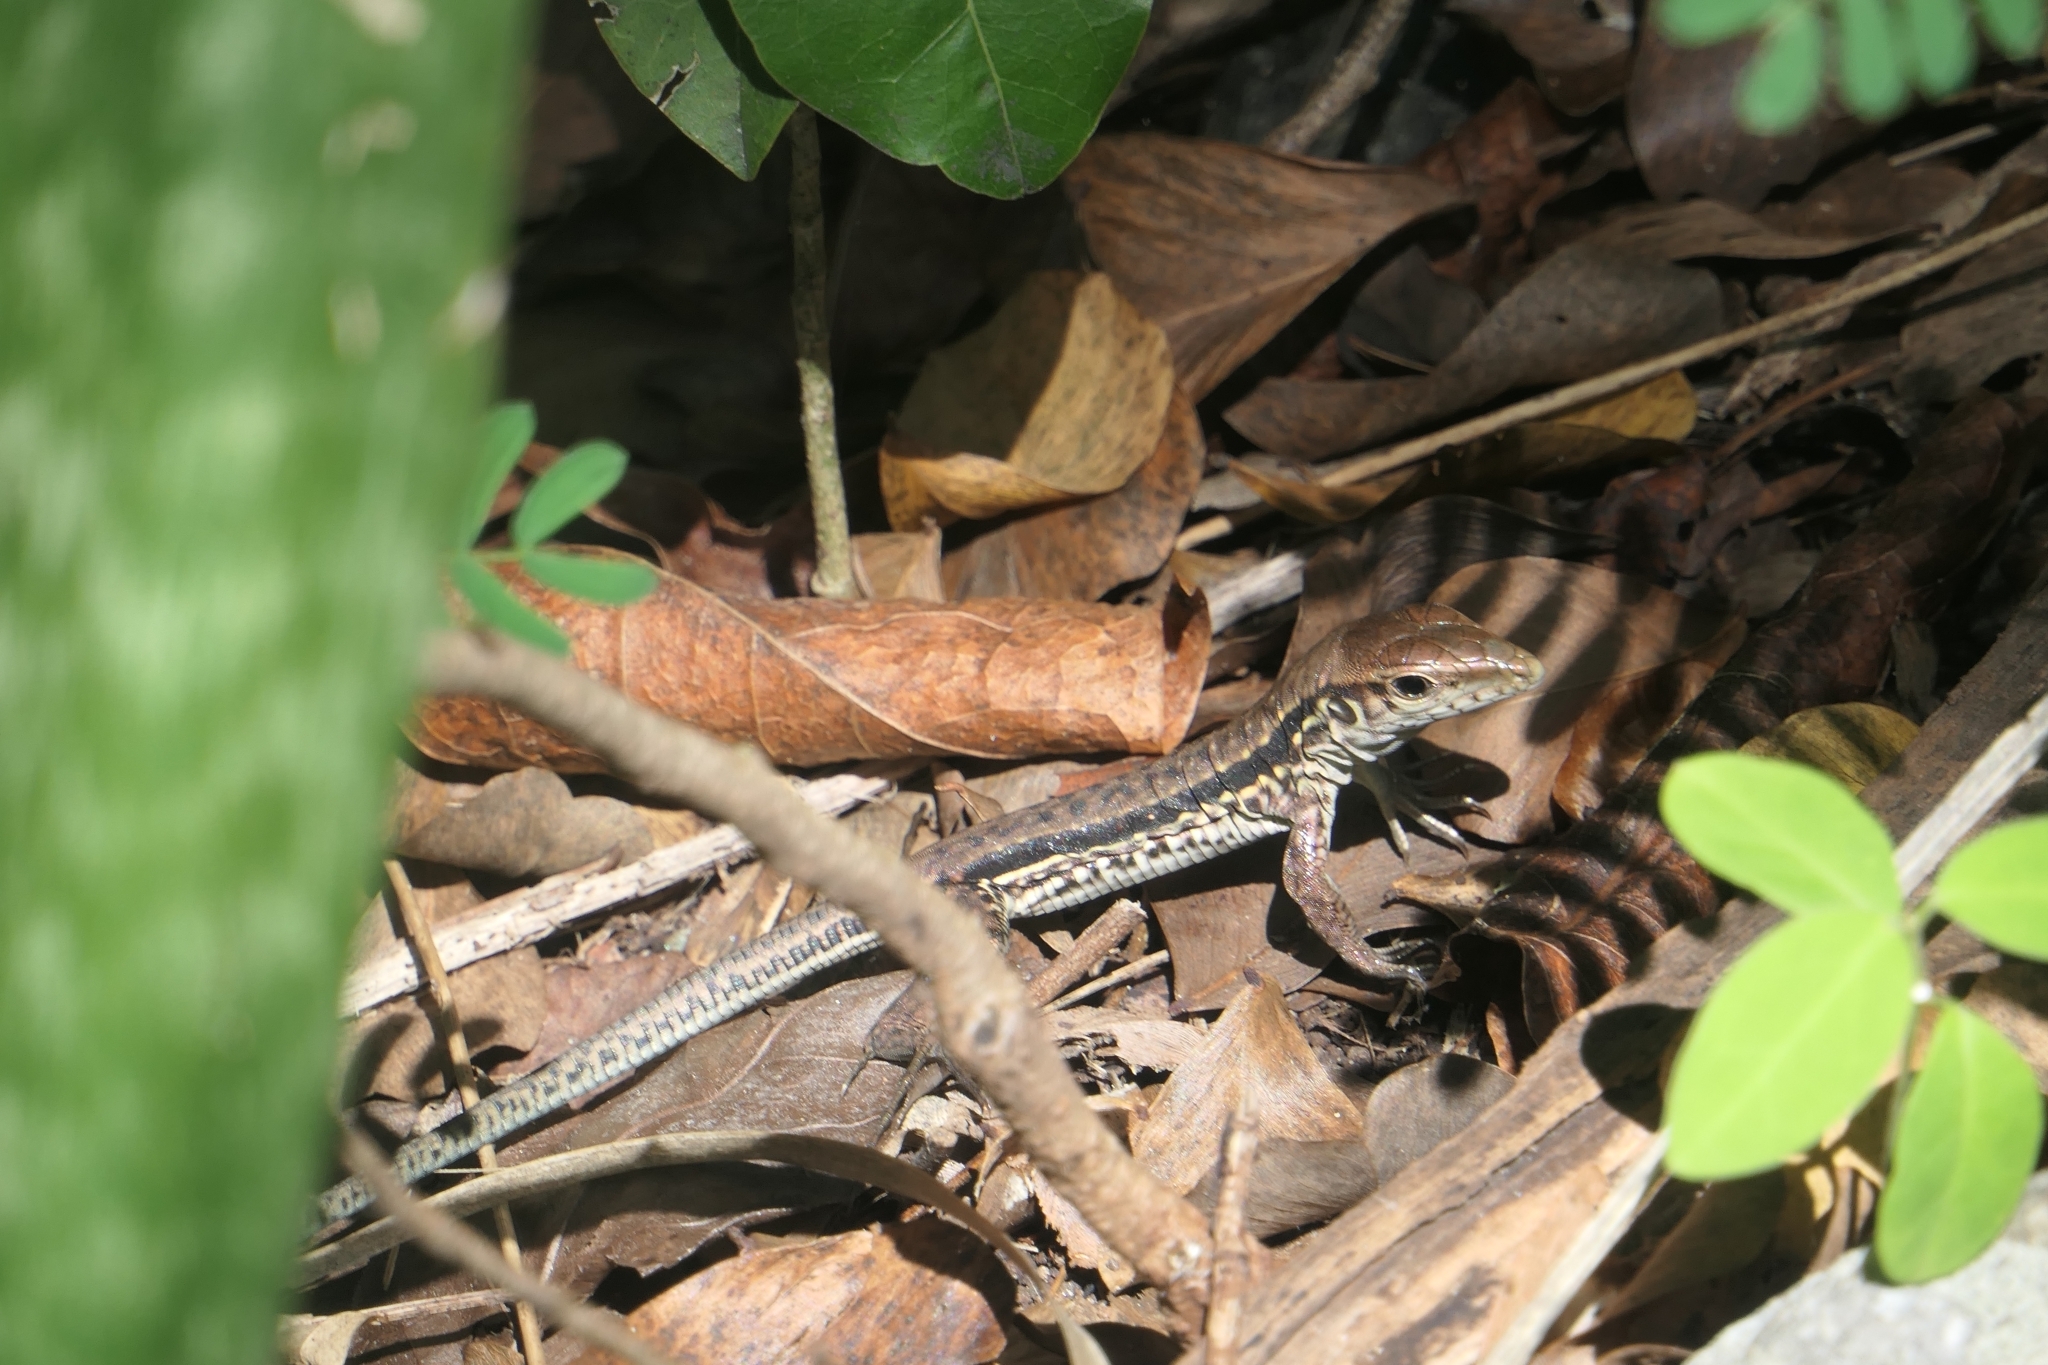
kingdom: Animalia
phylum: Chordata
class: Squamata
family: Teiidae
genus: Ameiva
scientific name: Ameiva tobagana
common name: Antillean ameiva
